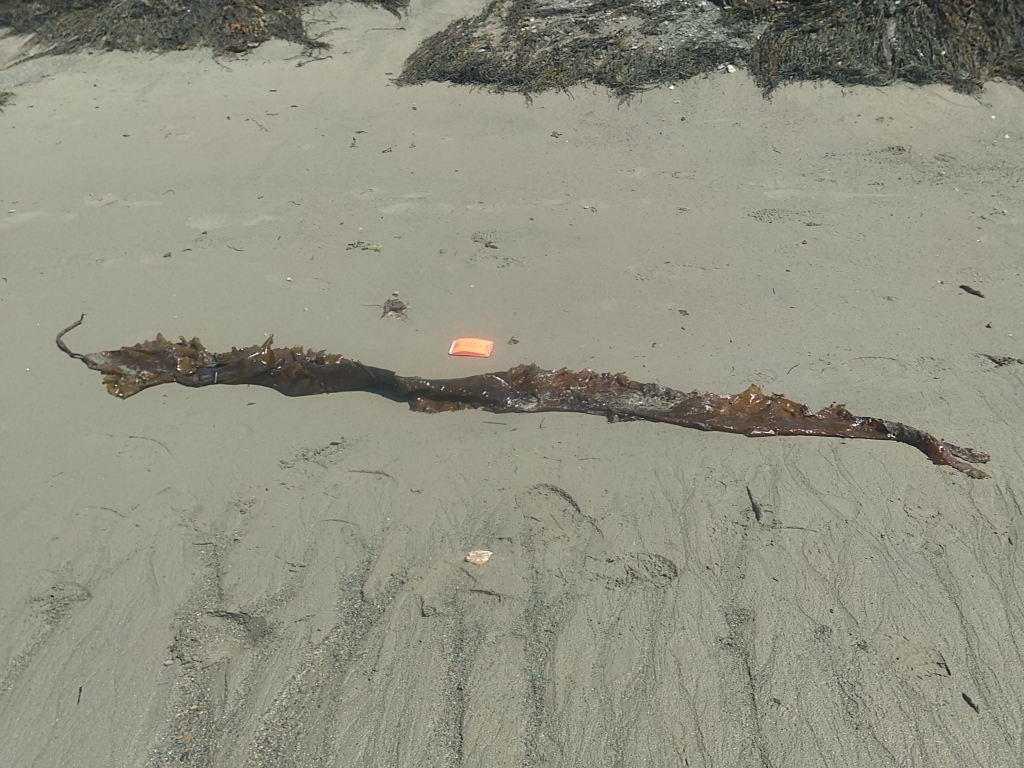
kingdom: Chromista
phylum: Ochrophyta
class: Phaeophyceae
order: Laminariales
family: Laminariaceae
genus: Saccharina
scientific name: Saccharina latissima
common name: Poor man's weather glass
